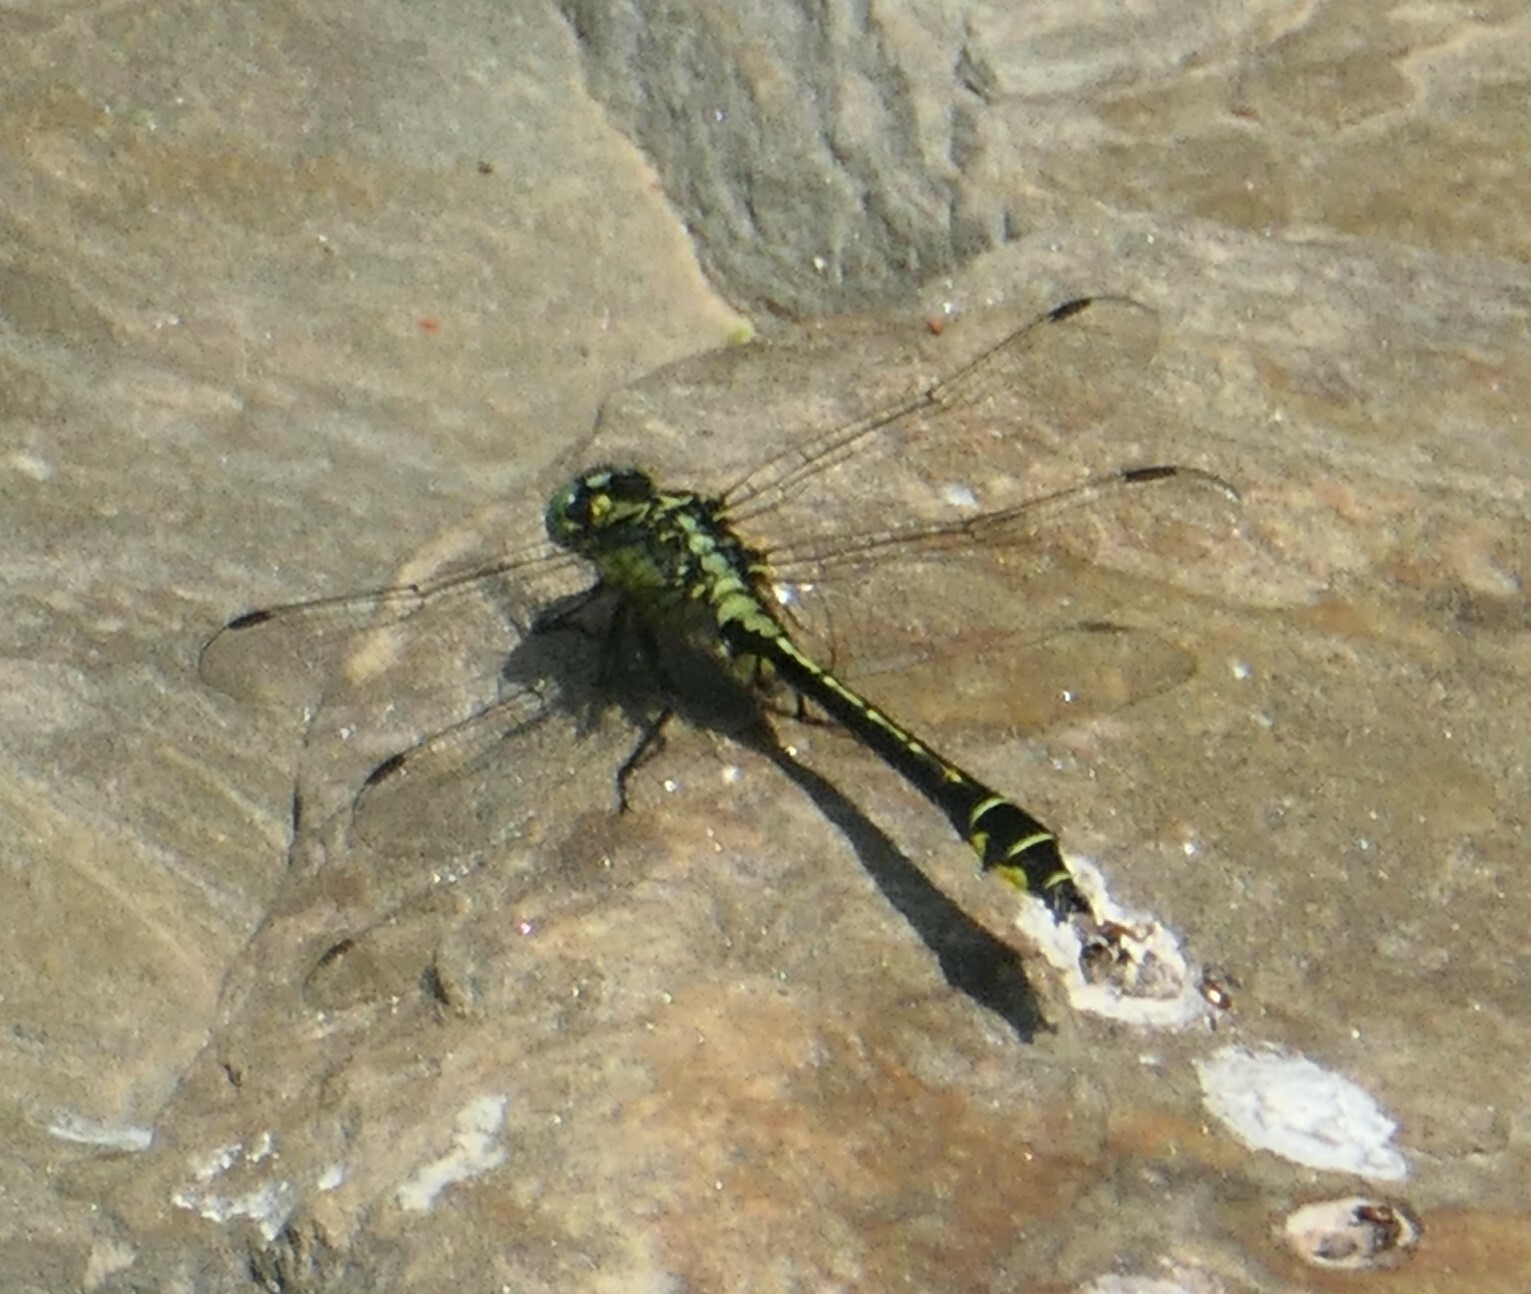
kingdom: Animalia
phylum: Arthropoda
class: Insecta
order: Odonata
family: Gomphidae
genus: Gomphus
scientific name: Gomphus vulgatissimus
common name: Club-tailed dragonfly
